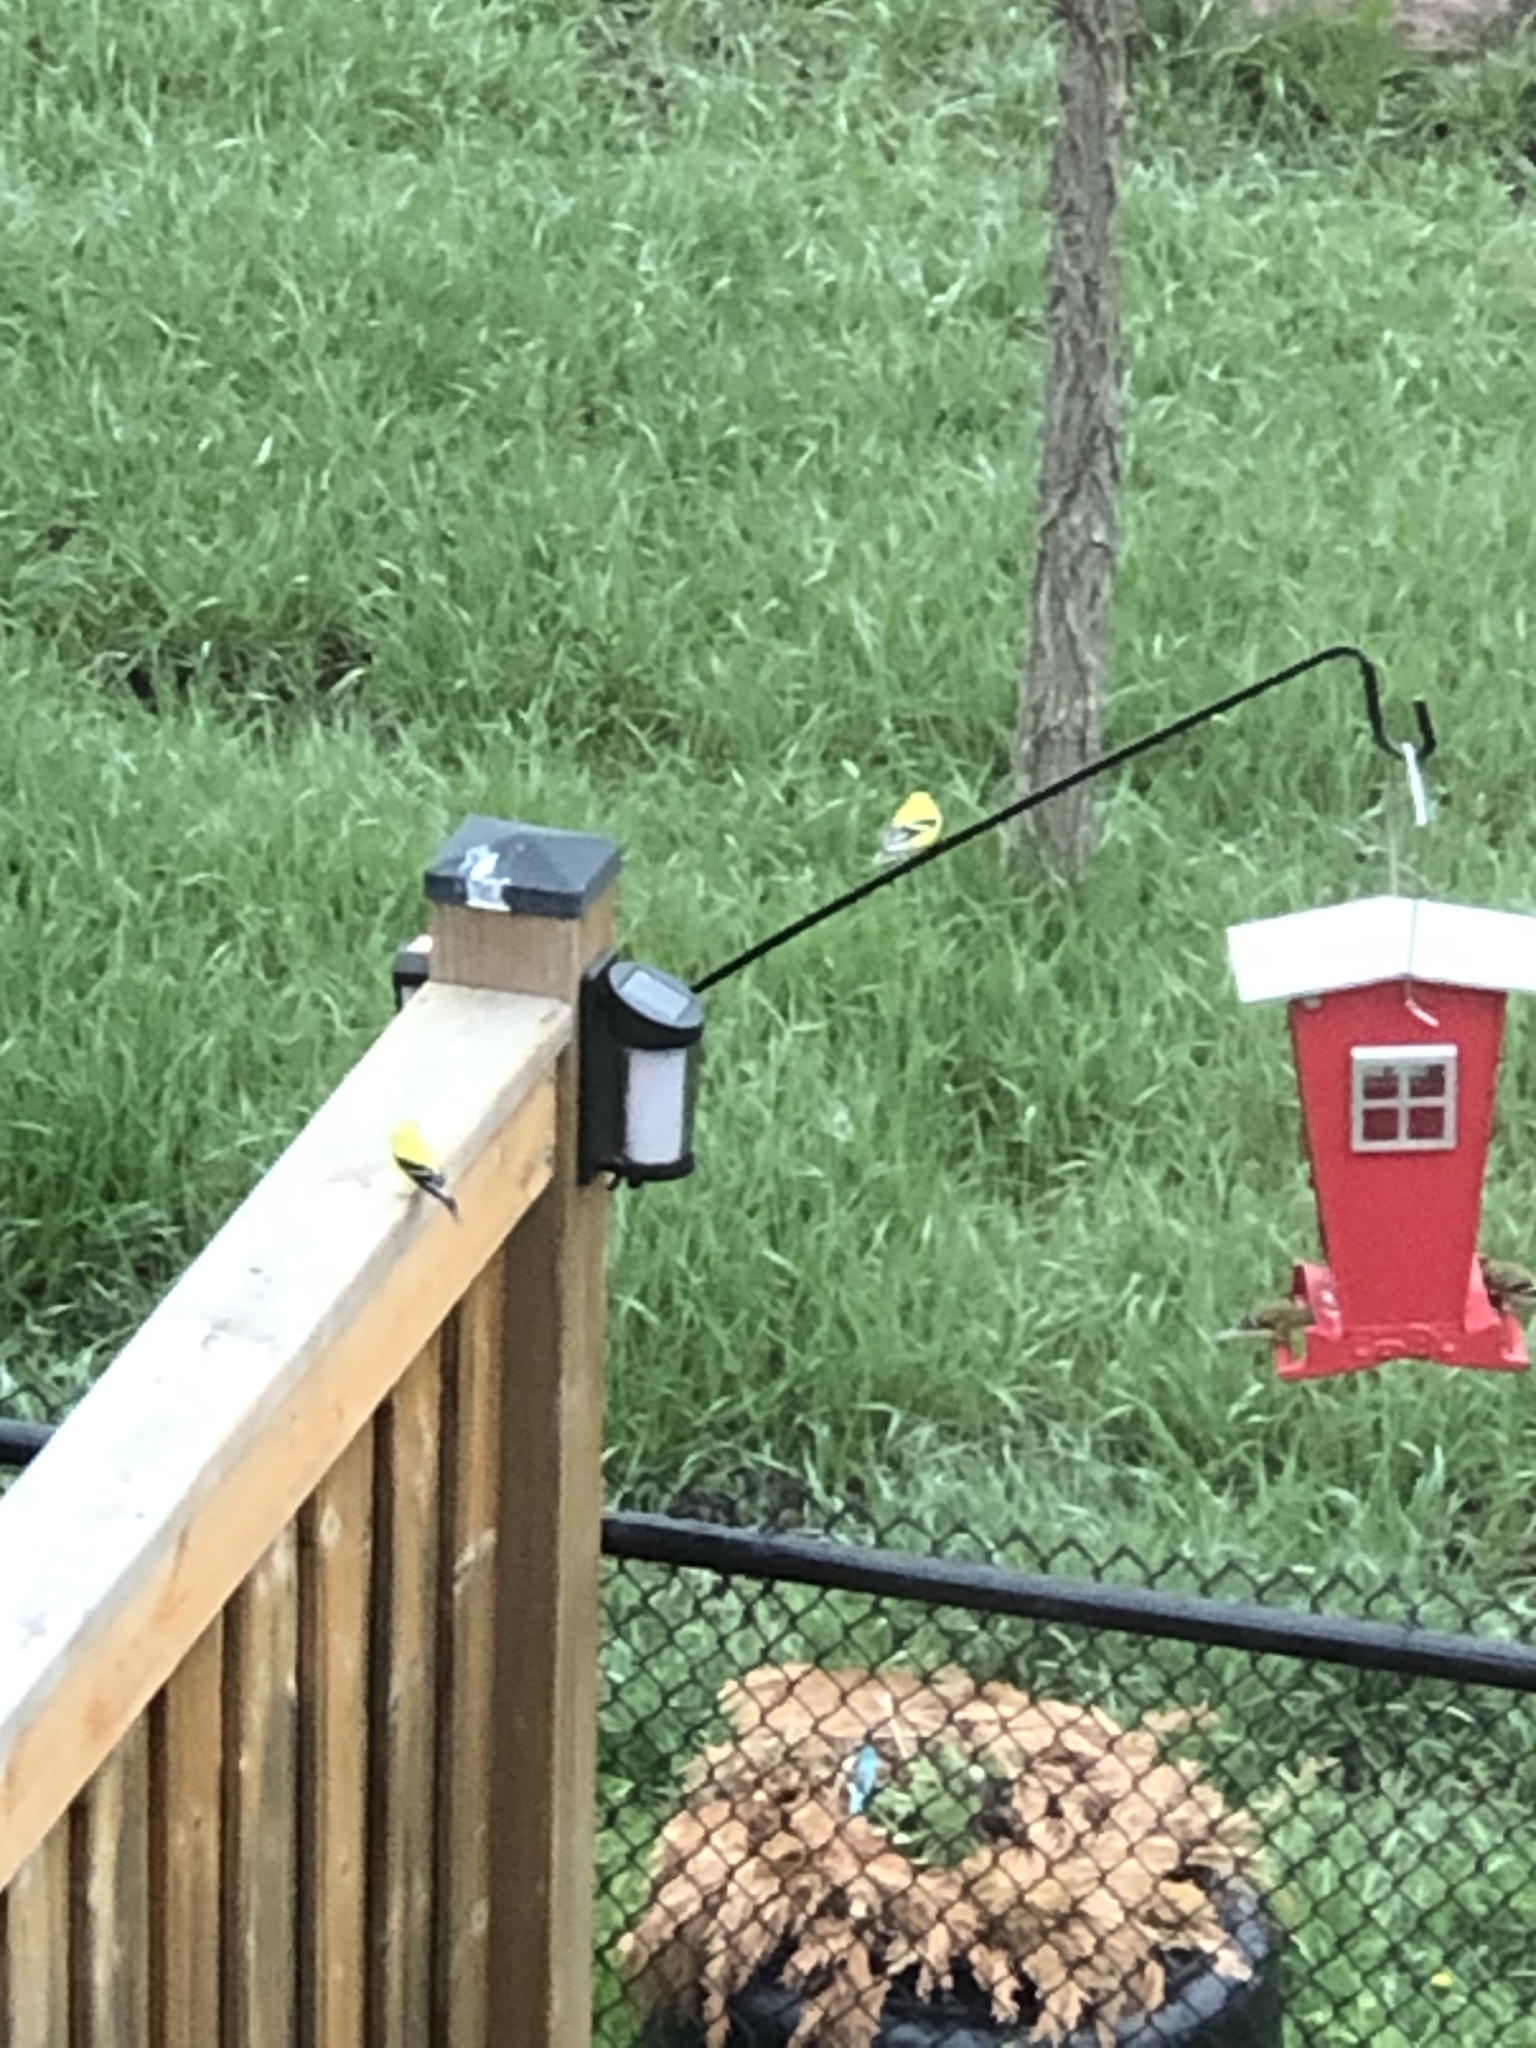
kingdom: Animalia
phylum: Chordata
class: Aves
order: Passeriformes
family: Fringillidae
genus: Spinus
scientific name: Spinus tristis
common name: American goldfinch
